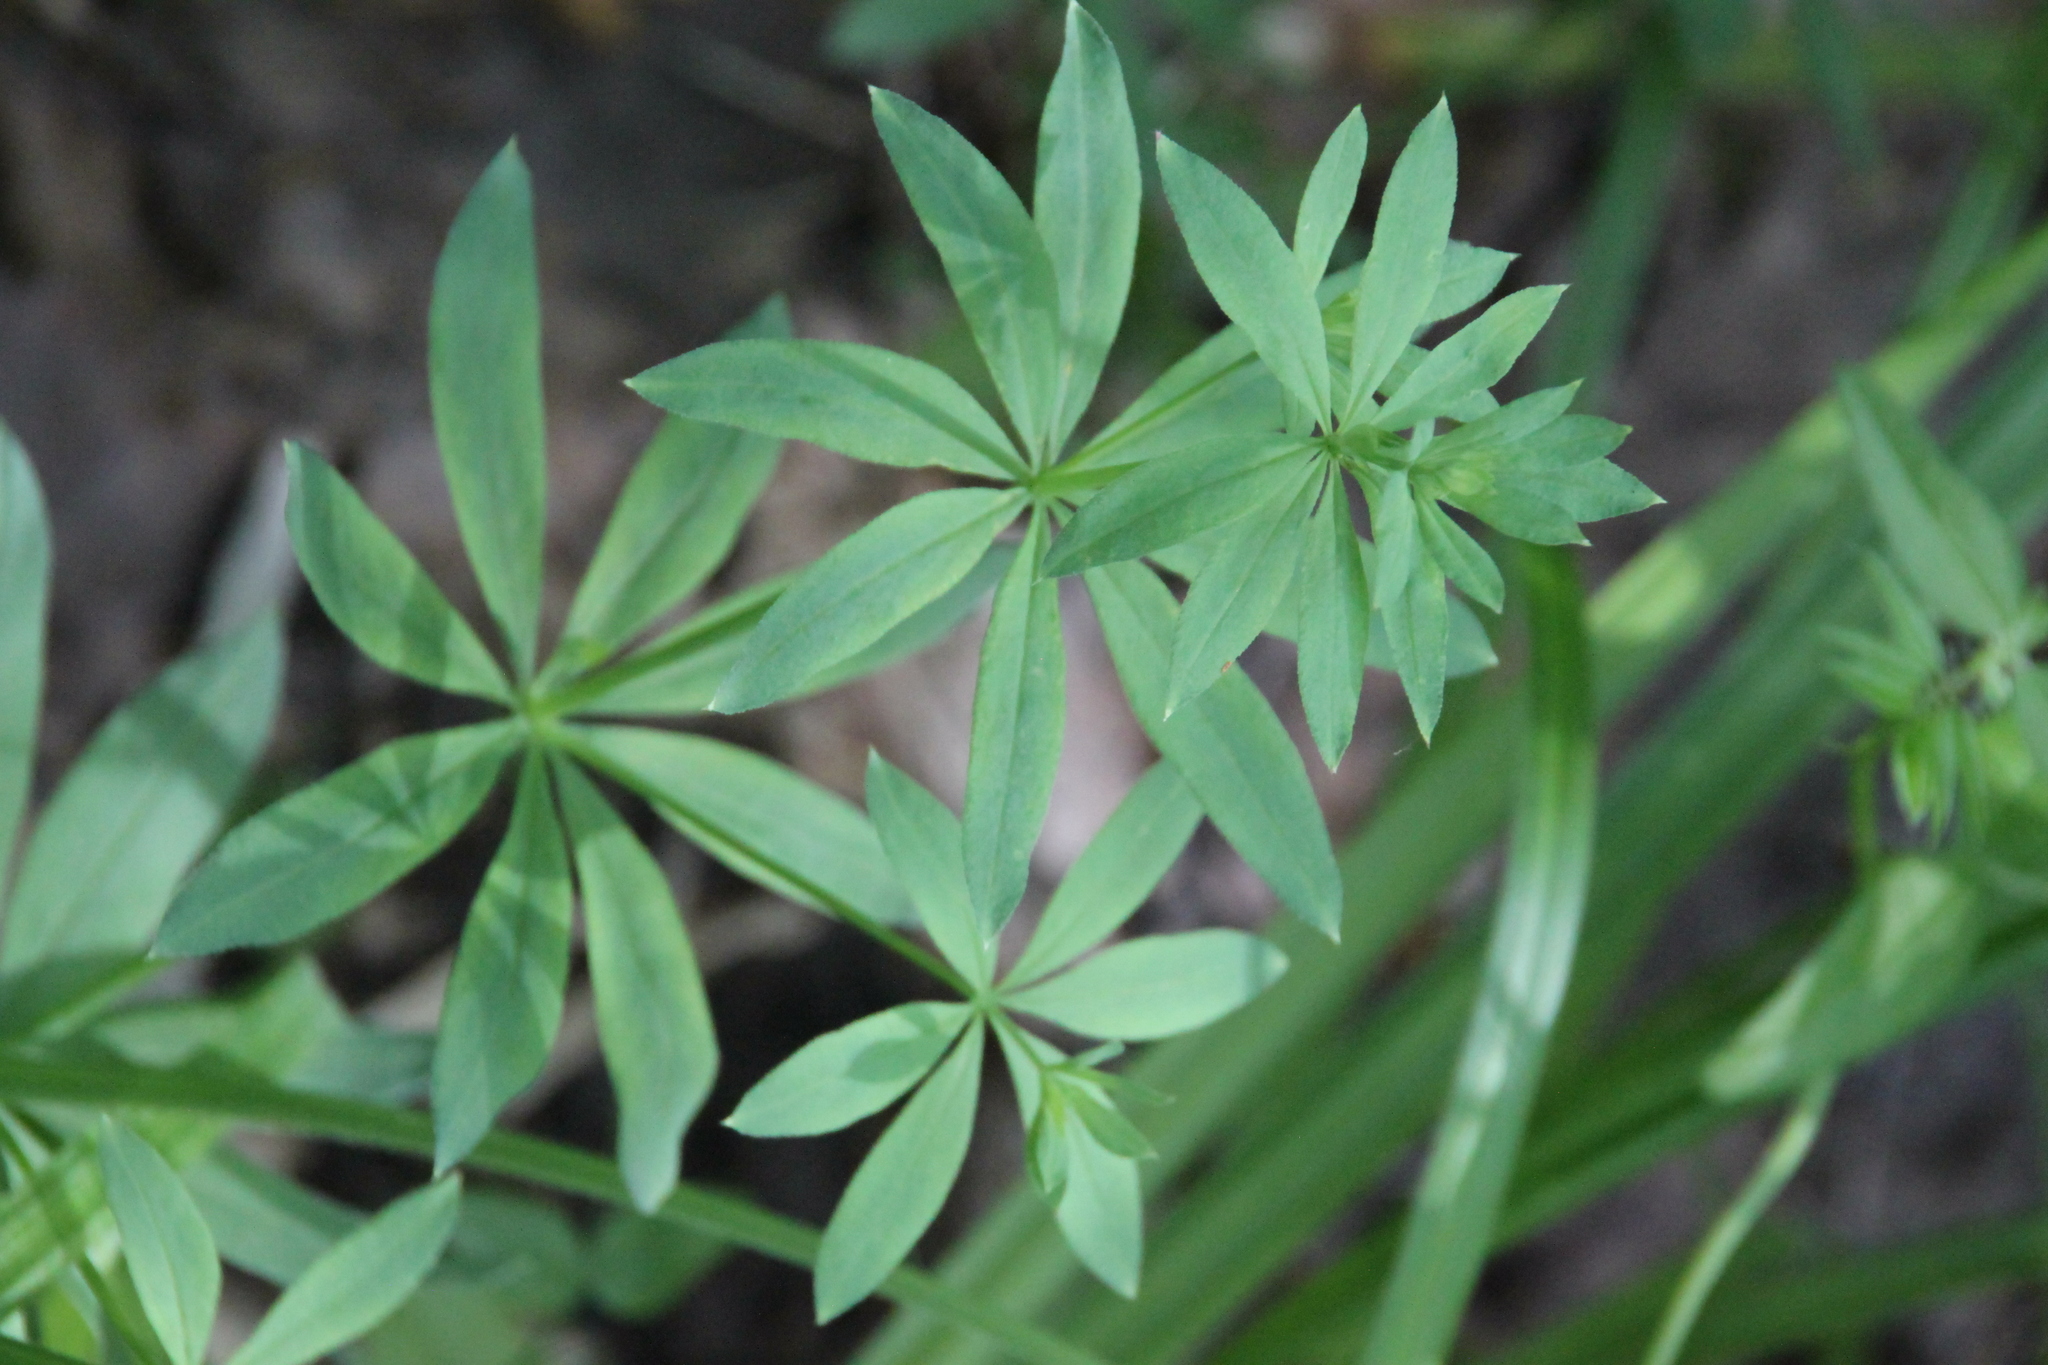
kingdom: Plantae
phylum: Tracheophyta
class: Magnoliopsida
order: Gentianales
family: Rubiaceae
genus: Galium
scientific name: Galium intermedium
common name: Bedstraw
